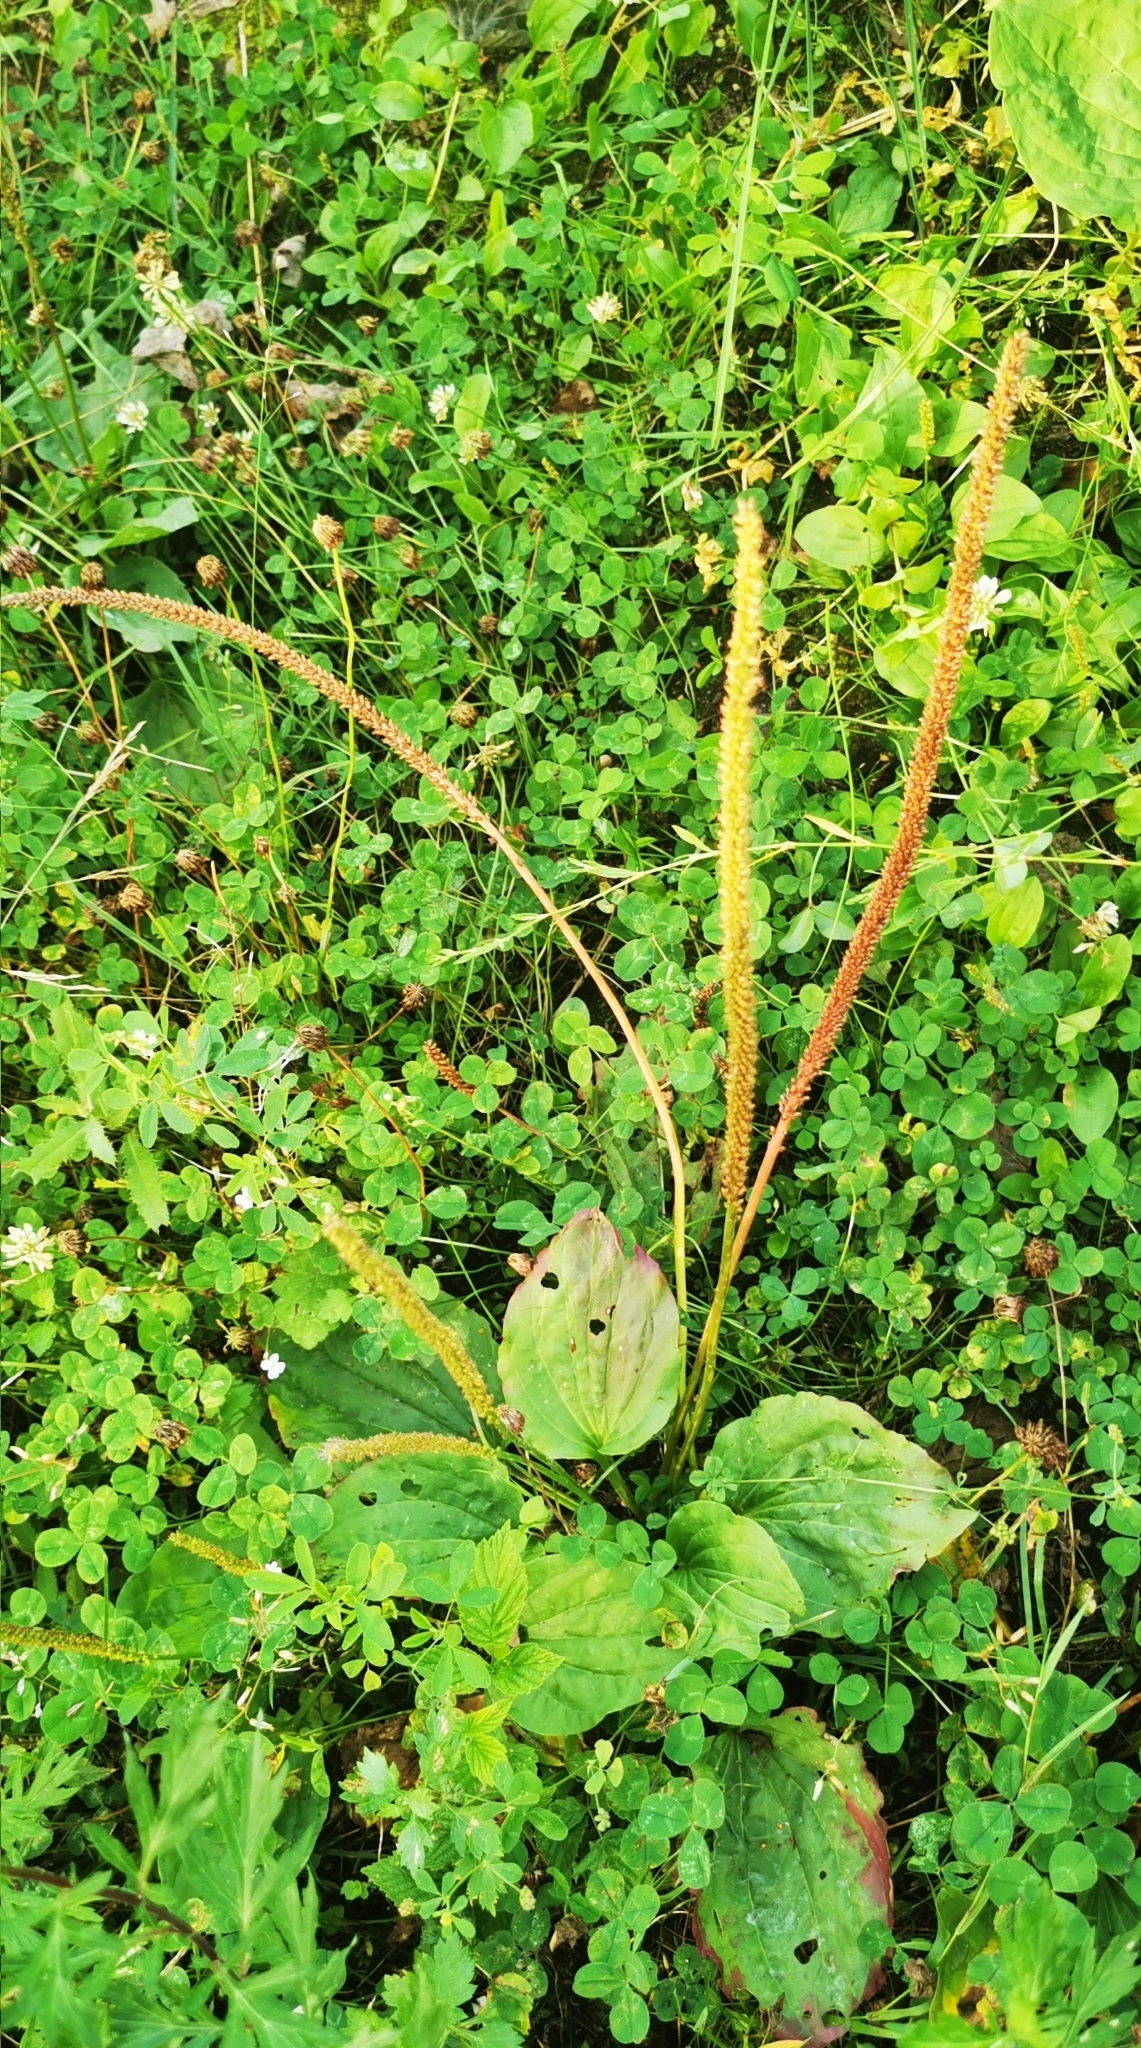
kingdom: Plantae
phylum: Tracheophyta
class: Magnoliopsida
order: Lamiales
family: Plantaginaceae
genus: Plantago
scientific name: Plantago major
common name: Common plantain
